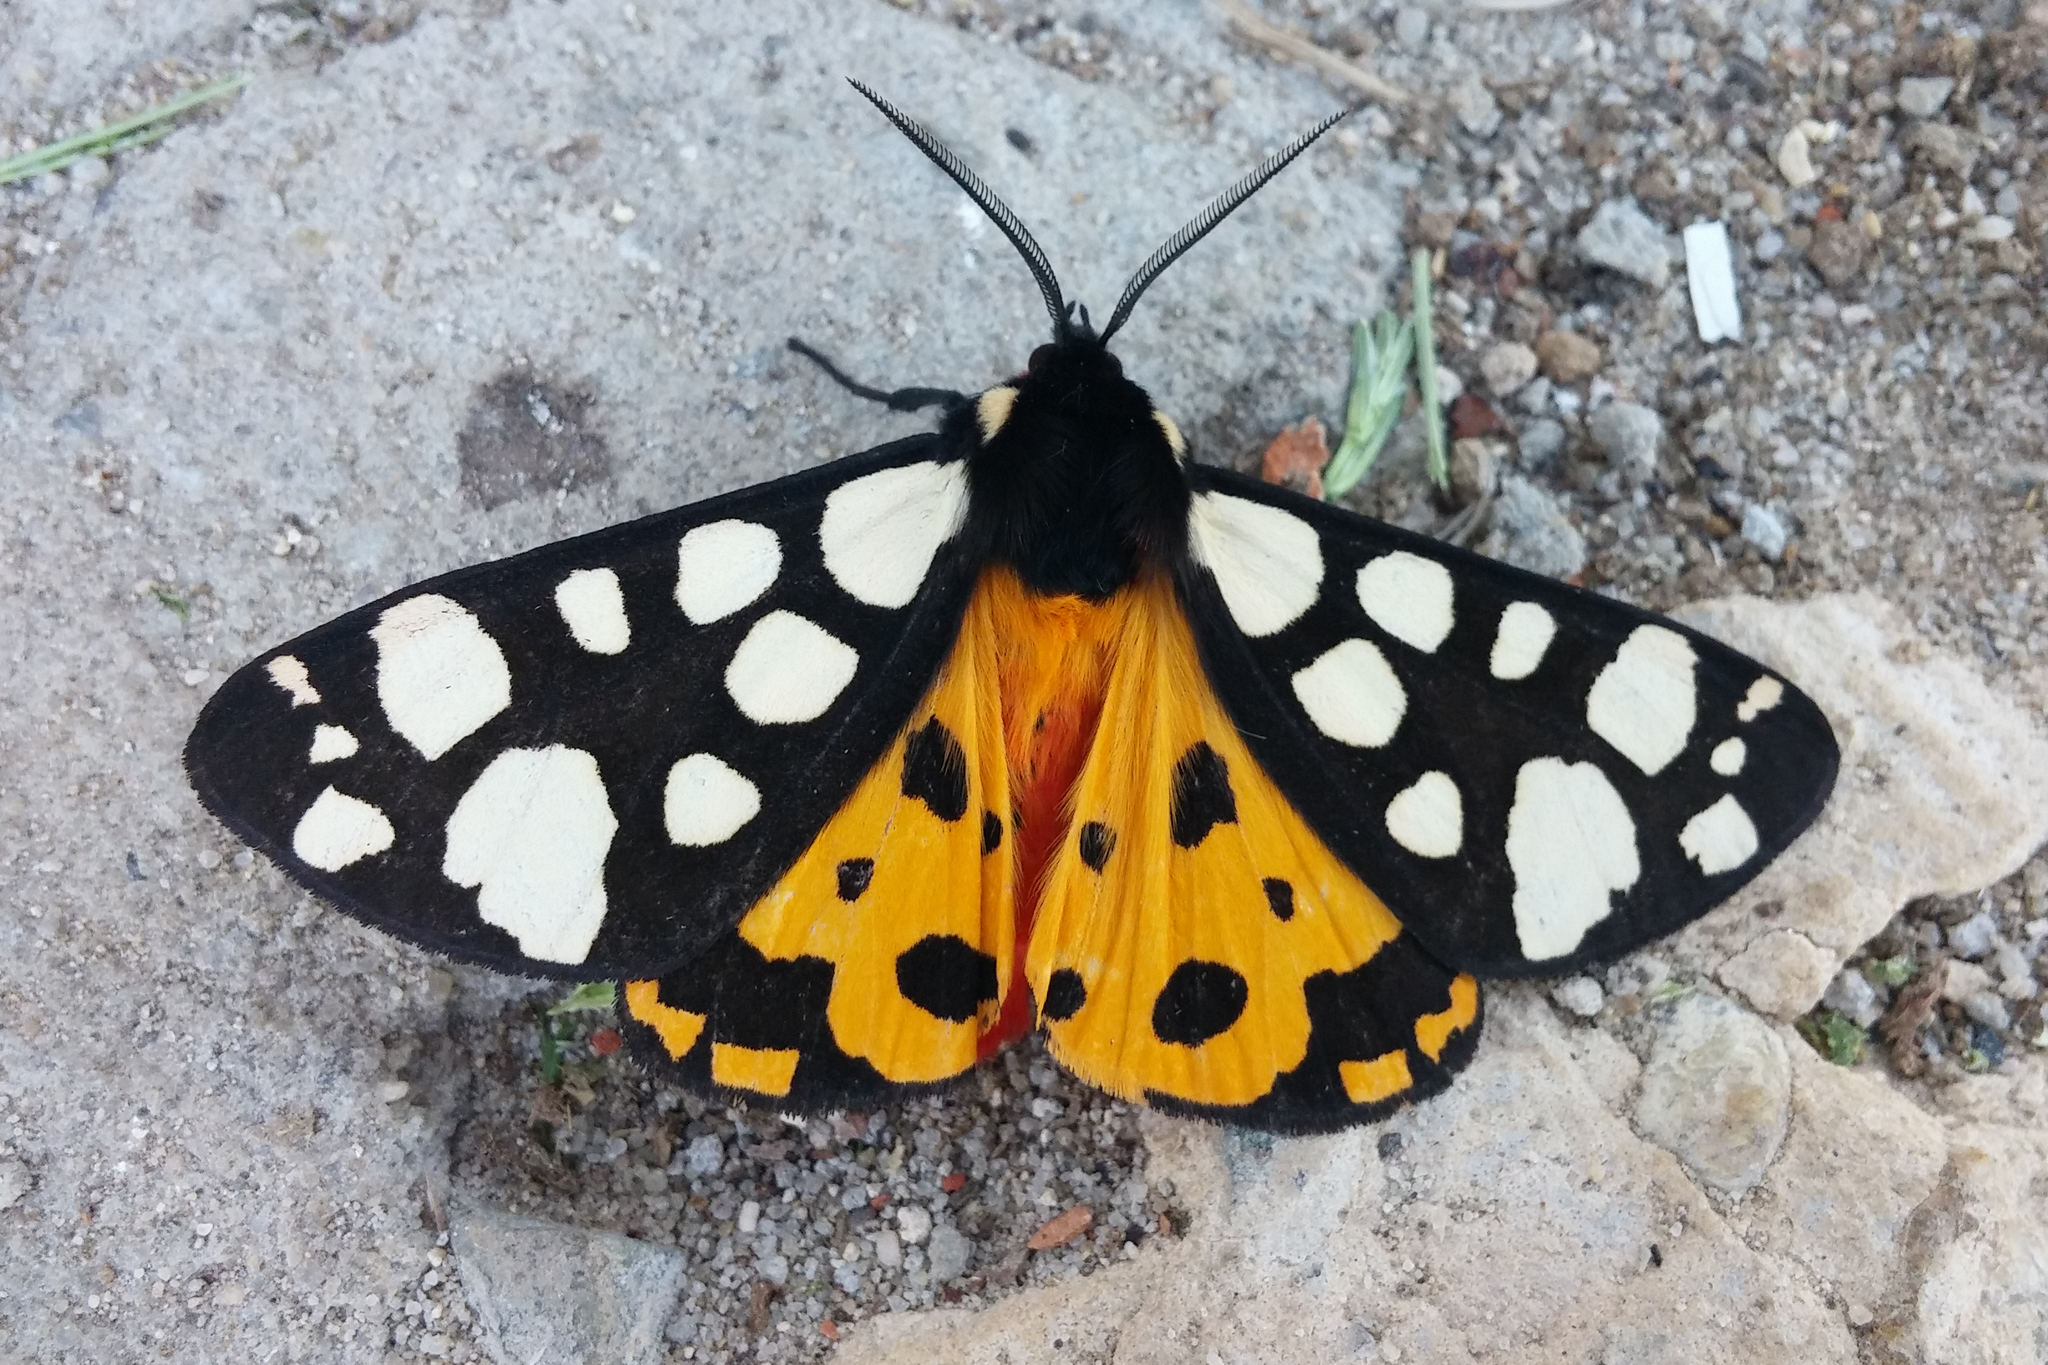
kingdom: Animalia
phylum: Arthropoda
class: Insecta
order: Lepidoptera
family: Erebidae
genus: Epicallia
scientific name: Epicallia villica
